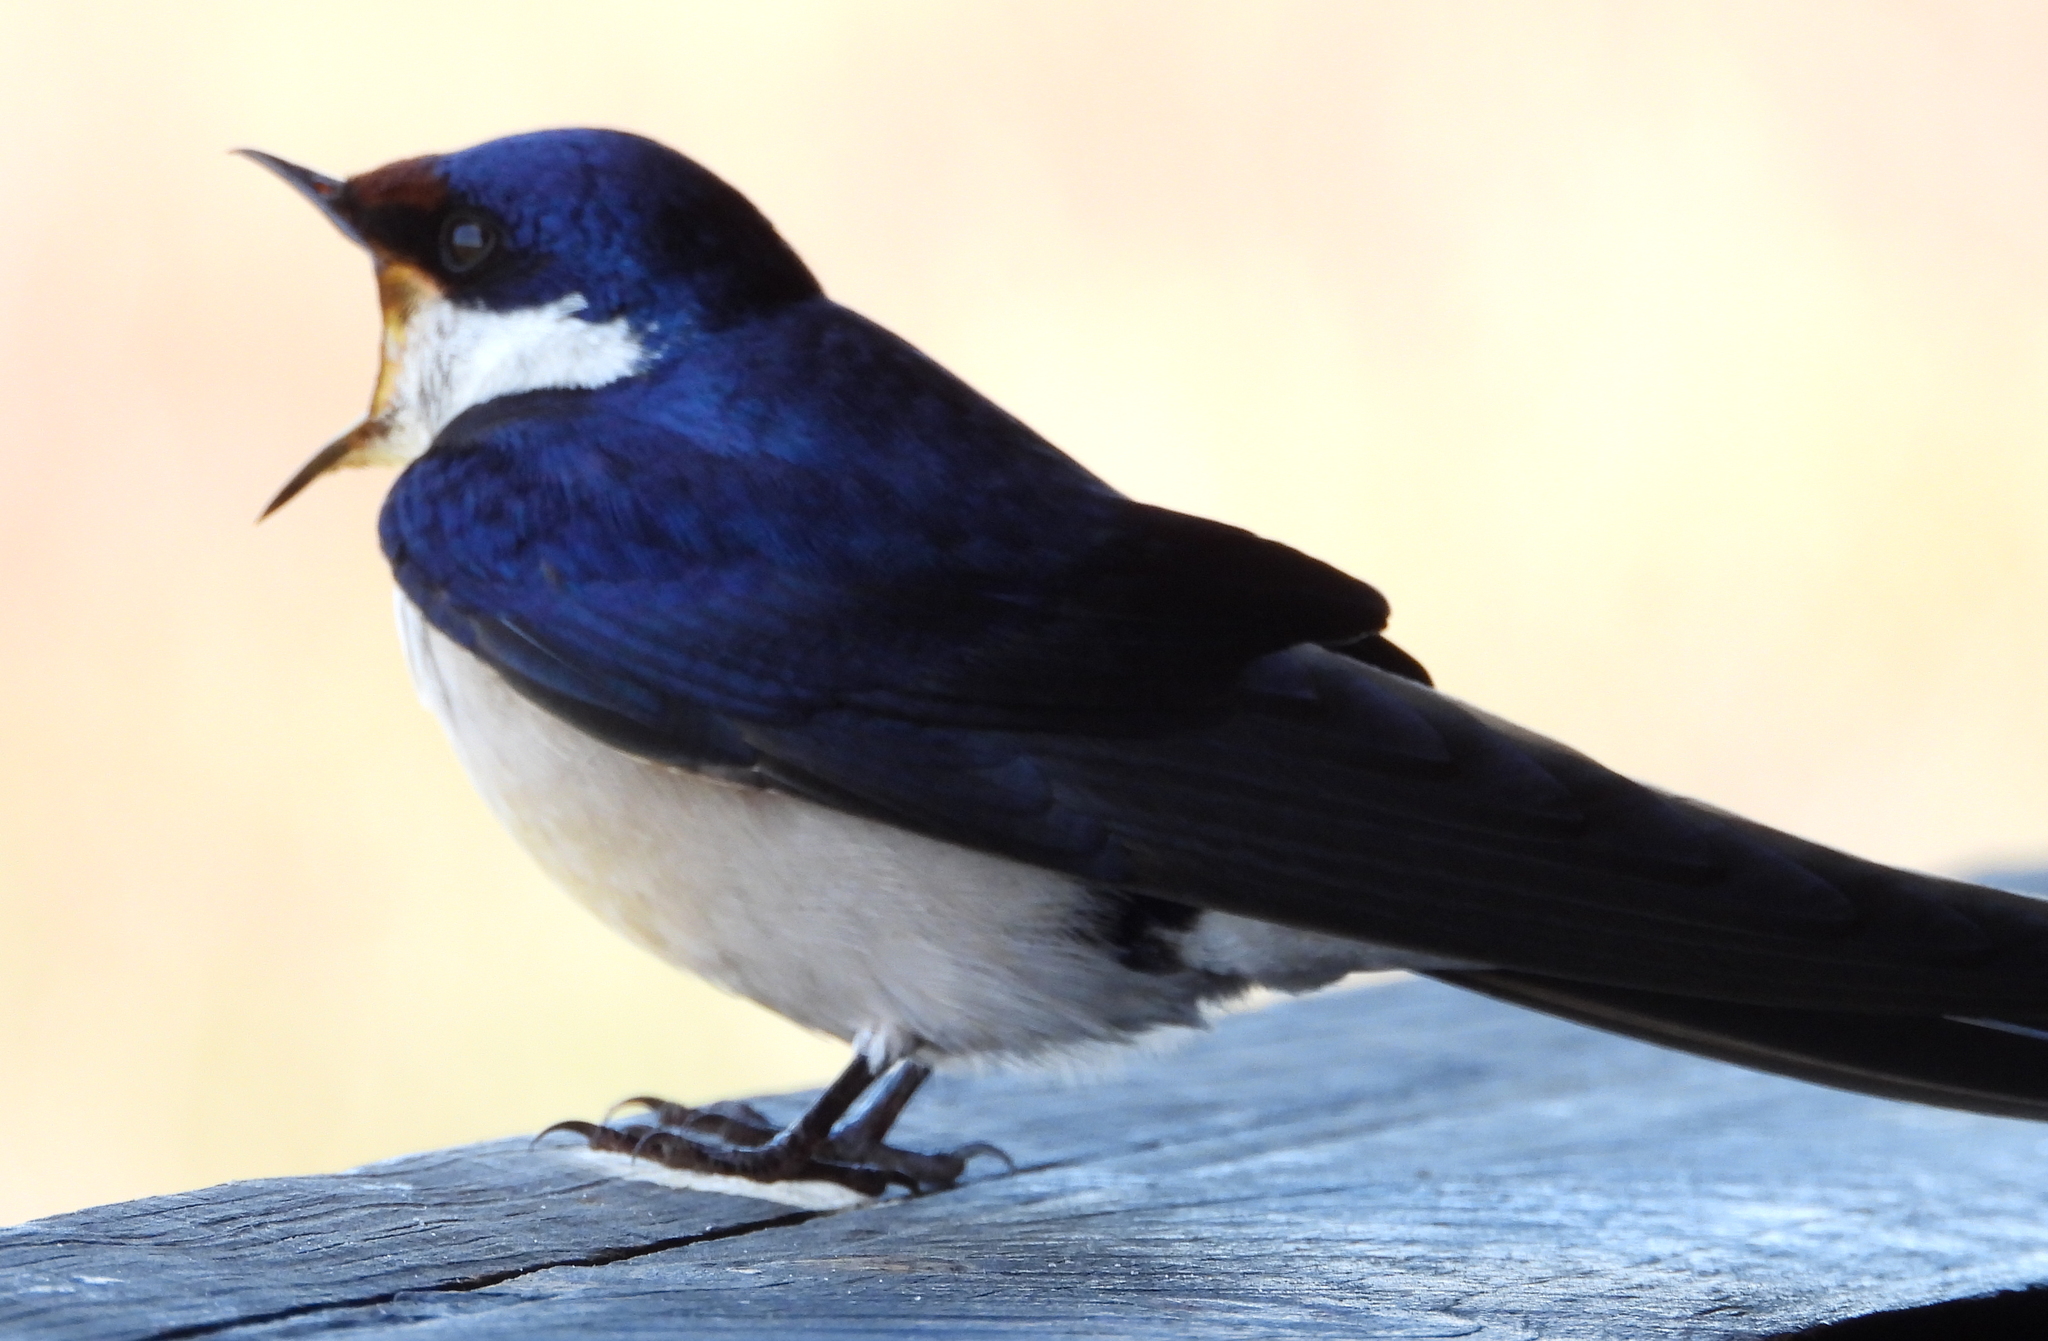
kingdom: Animalia
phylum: Chordata
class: Aves
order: Passeriformes
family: Hirundinidae
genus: Hirundo
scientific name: Hirundo albigularis
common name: White-throated swallow
